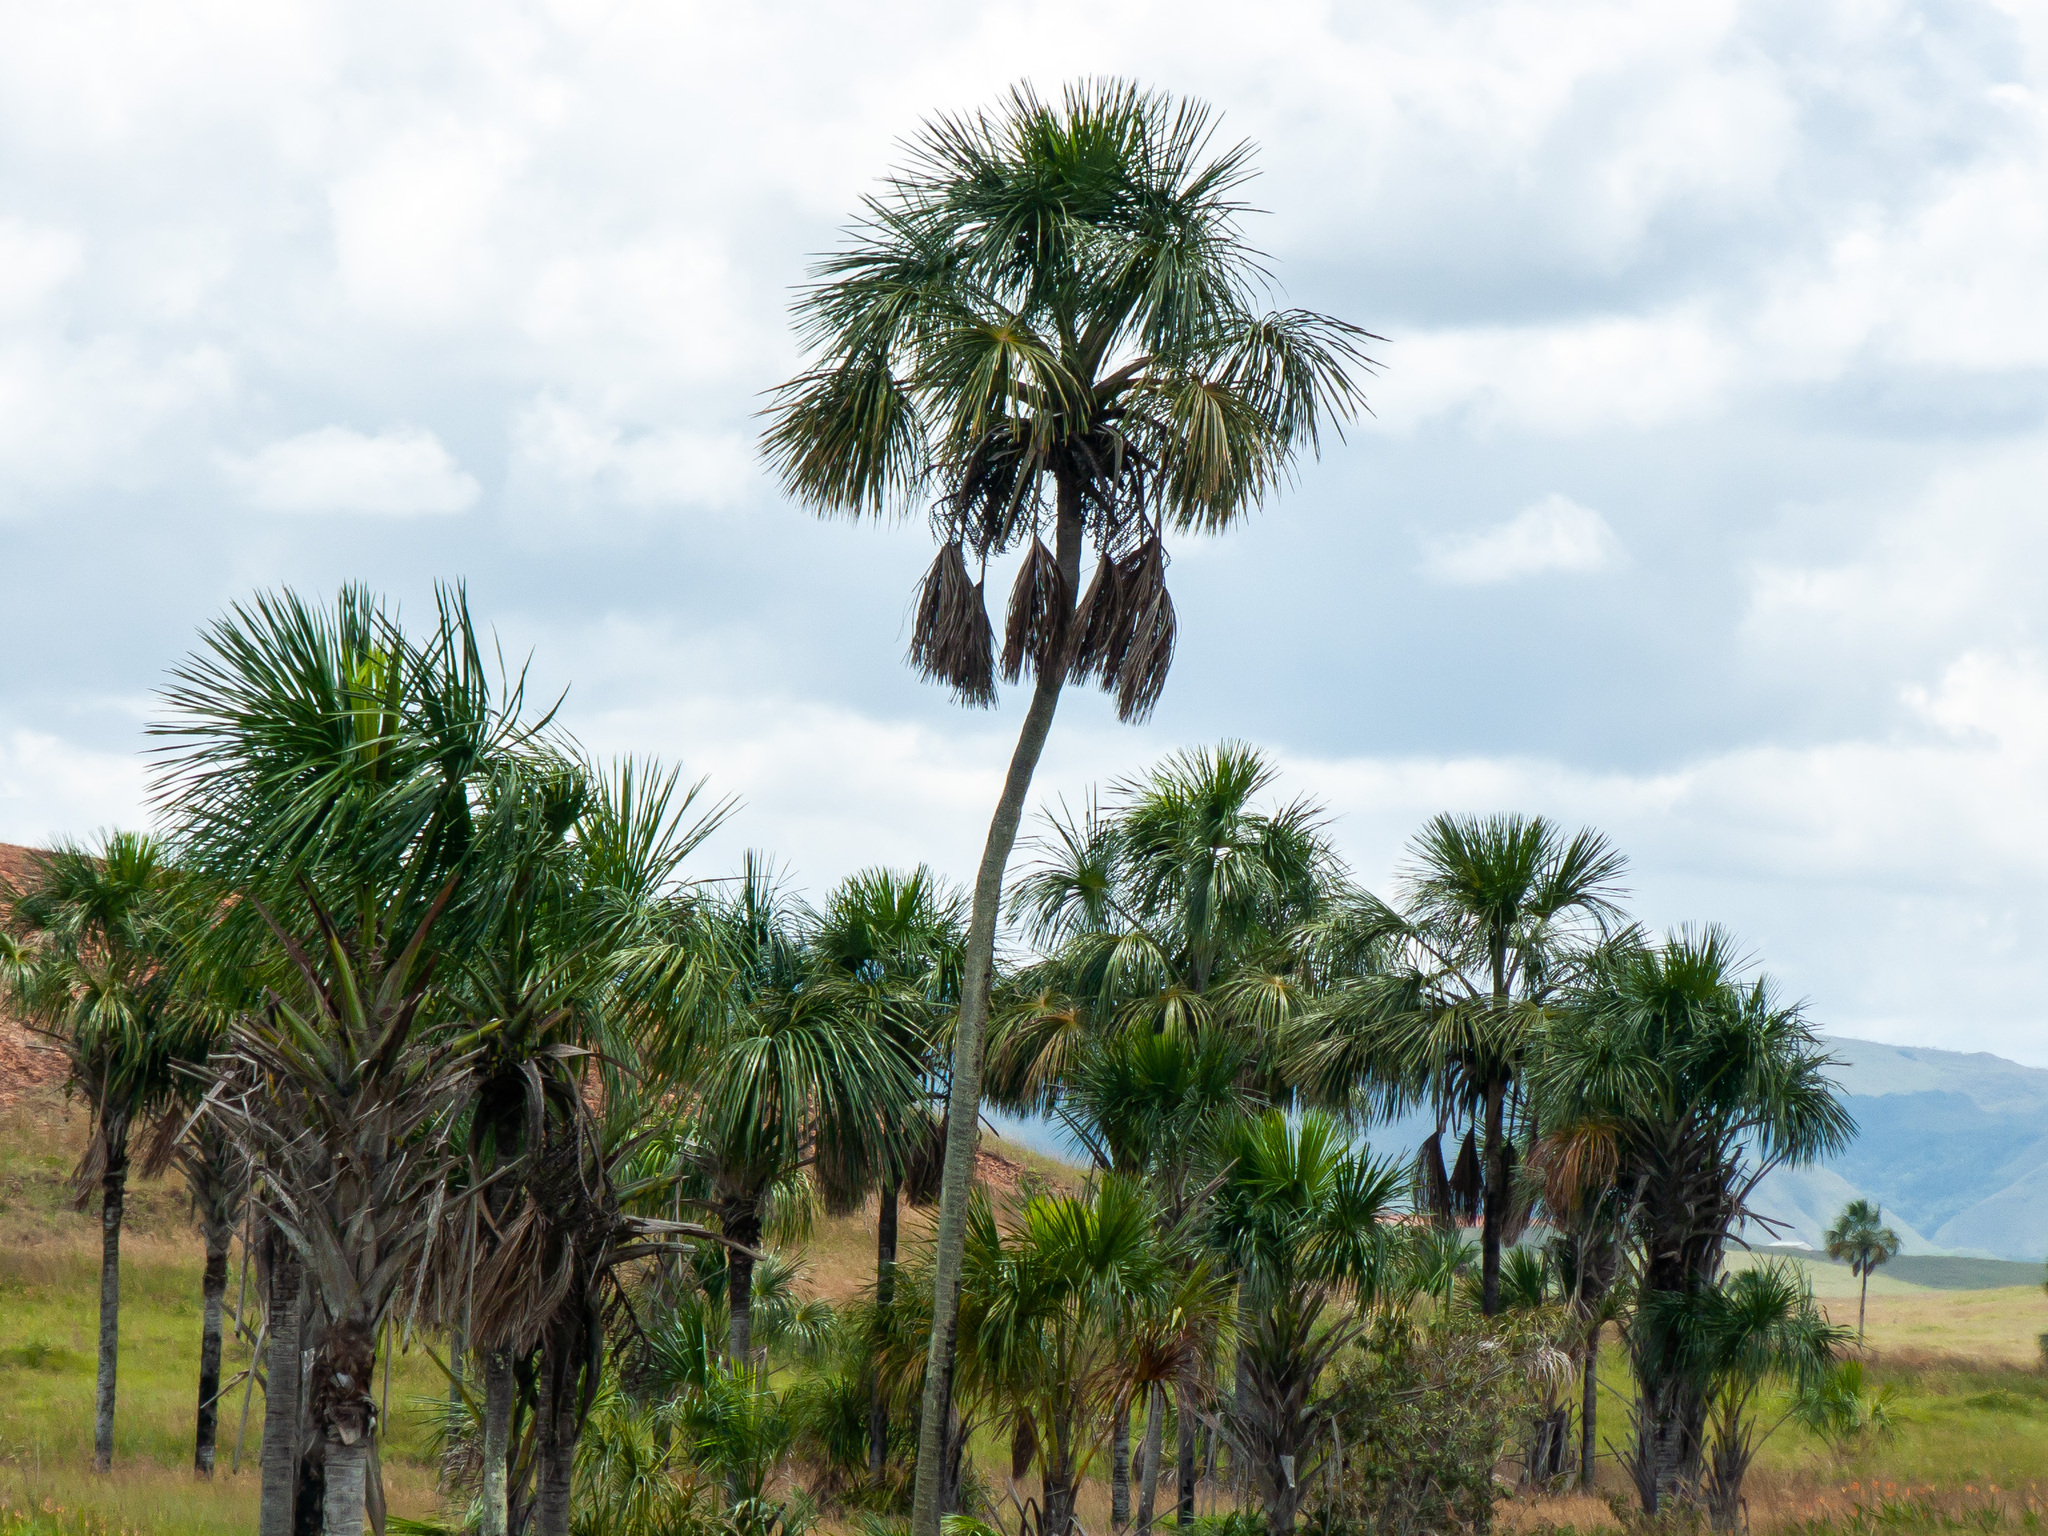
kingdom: Plantae
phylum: Tracheophyta
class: Liliopsida
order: Arecales
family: Arecaceae
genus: Mauritia
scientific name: Mauritia flexuosa
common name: Tree-of-life
